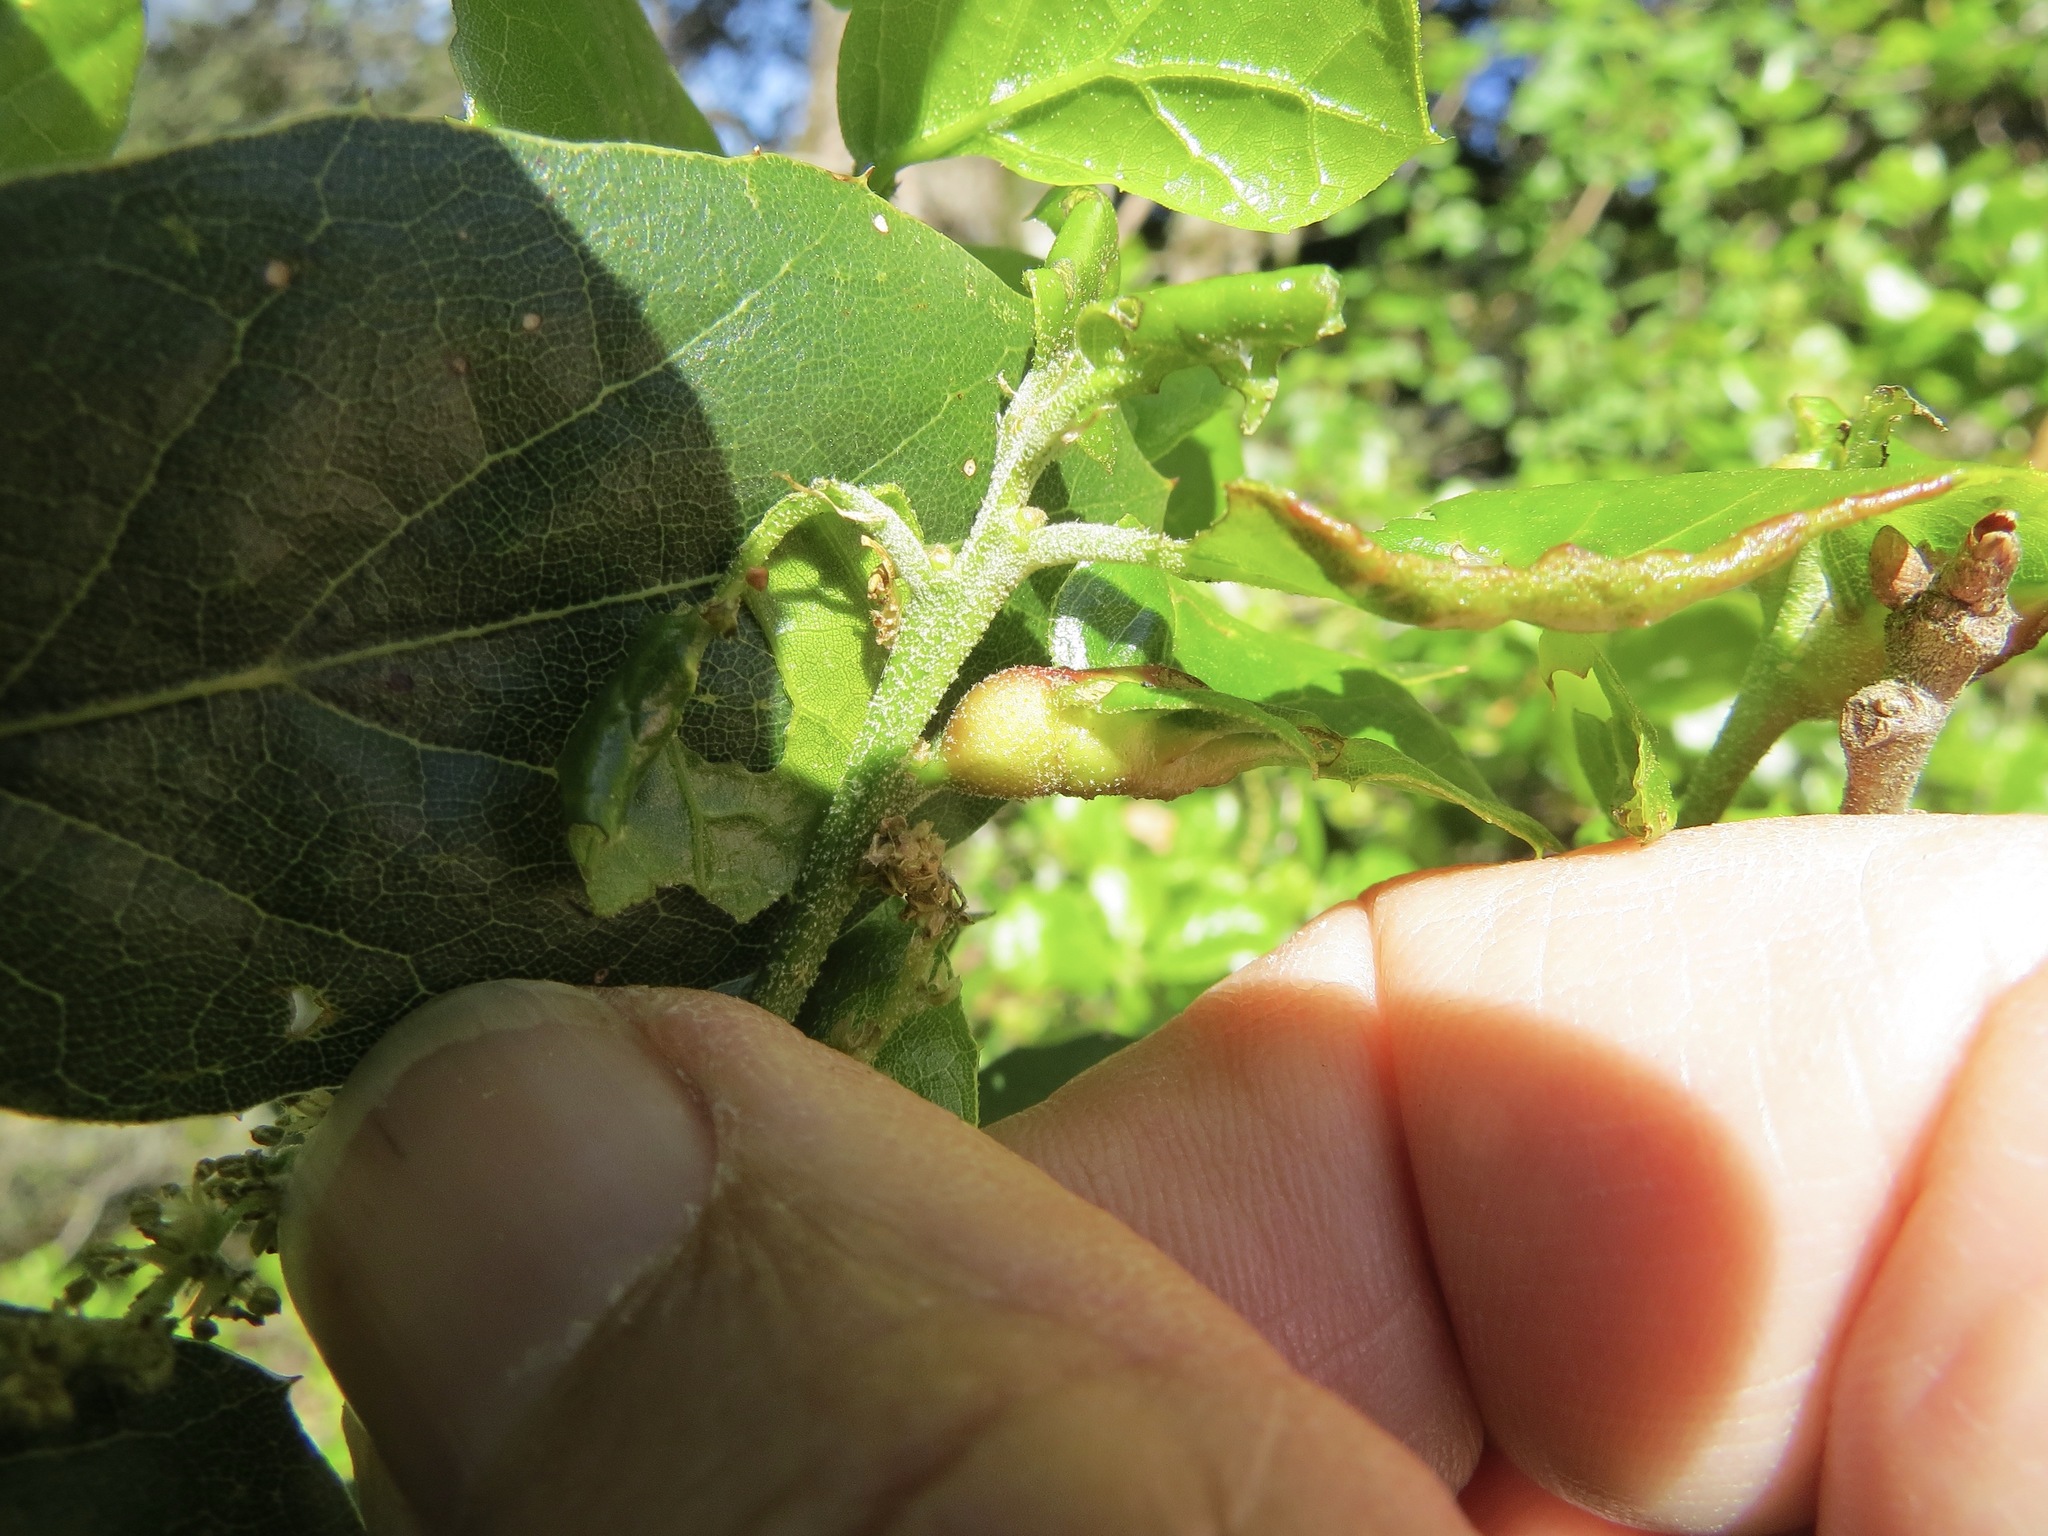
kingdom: Animalia
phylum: Arthropoda
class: Insecta
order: Hymenoptera
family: Cynipidae
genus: Melikaiella
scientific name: Melikaiella
